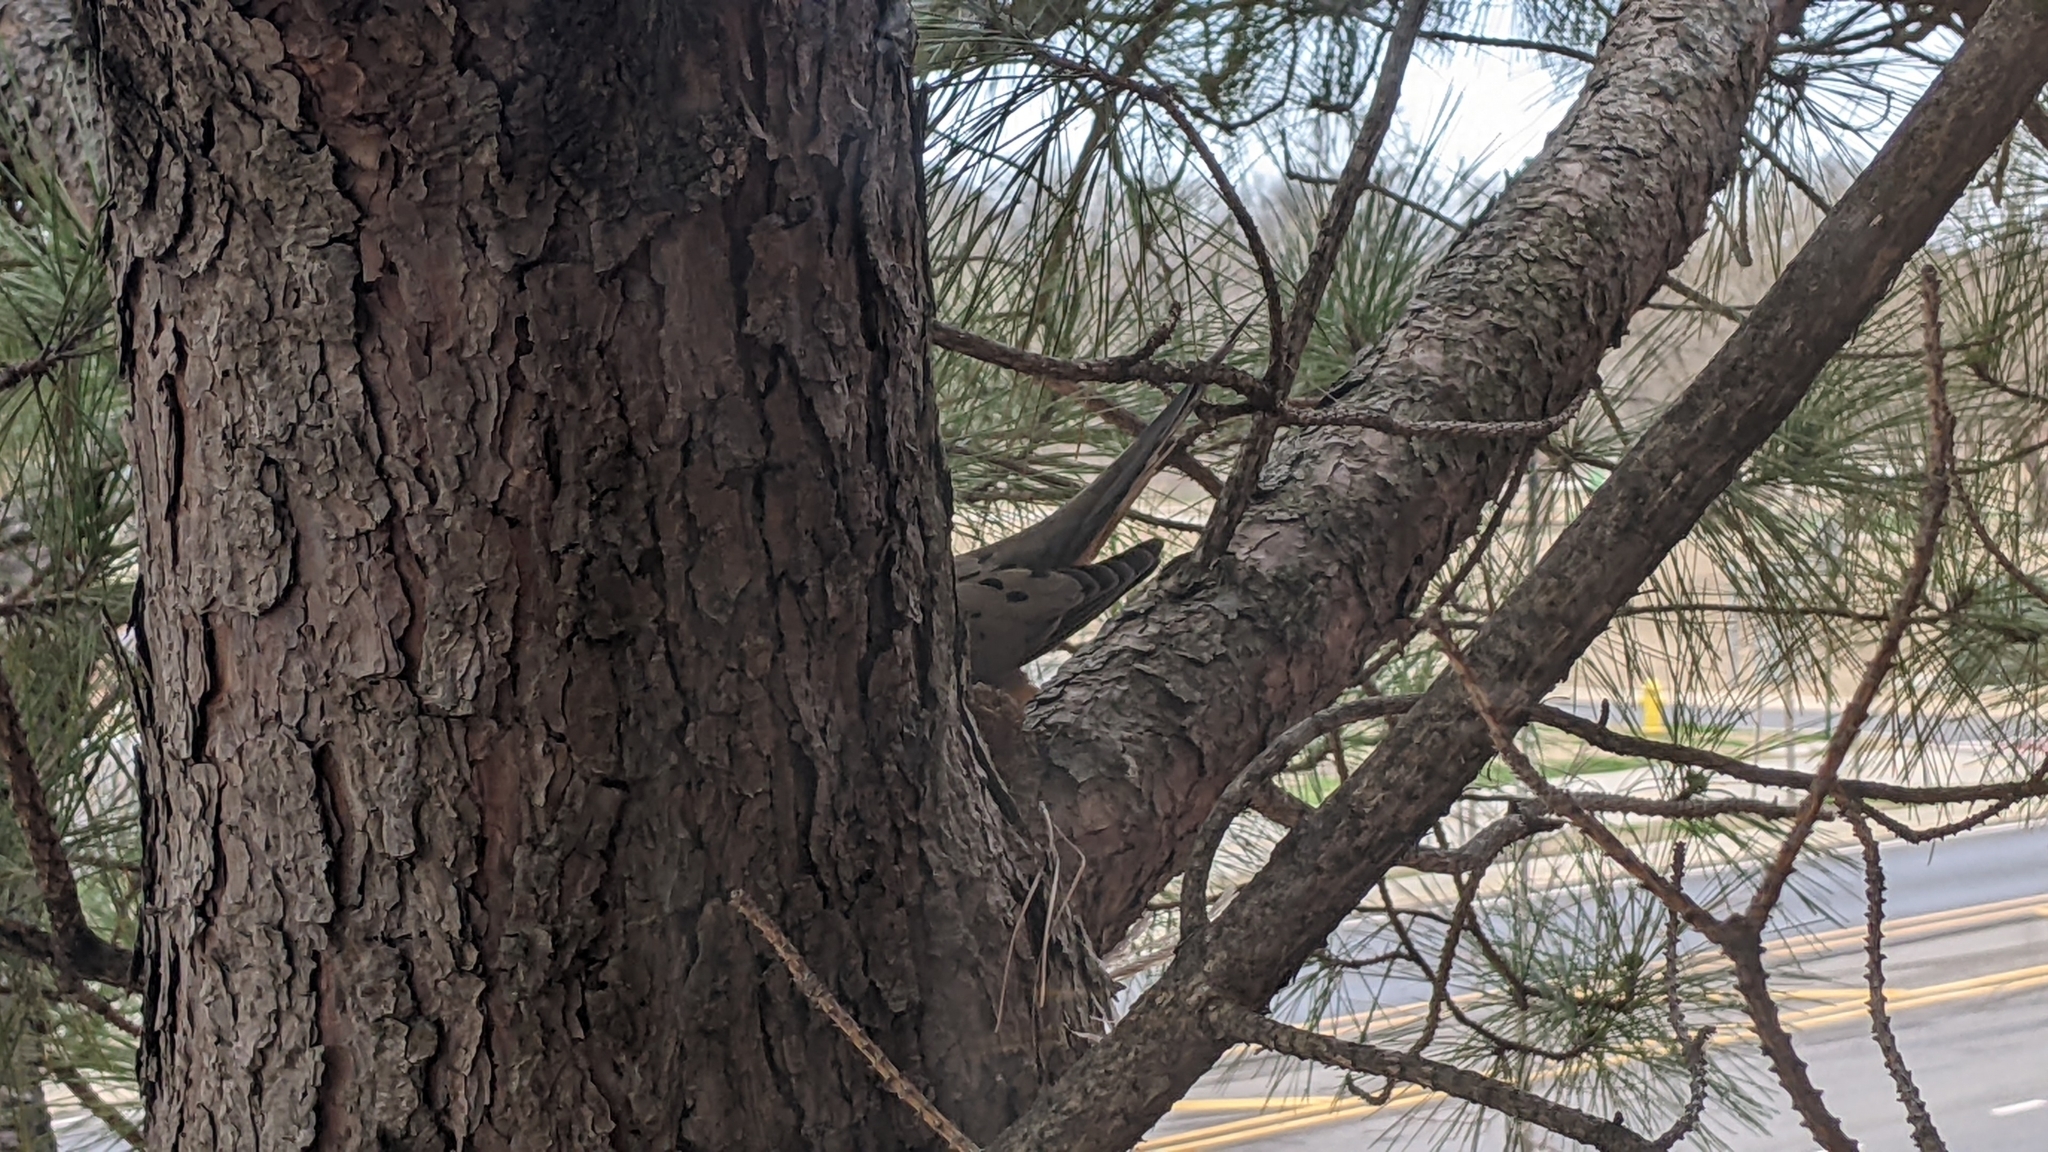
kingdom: Animalia
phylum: Chordata
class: Aves
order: Columbiformes
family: Columbidae
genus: Zenaida
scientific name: Zenaida macroura
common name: Mourning dove
